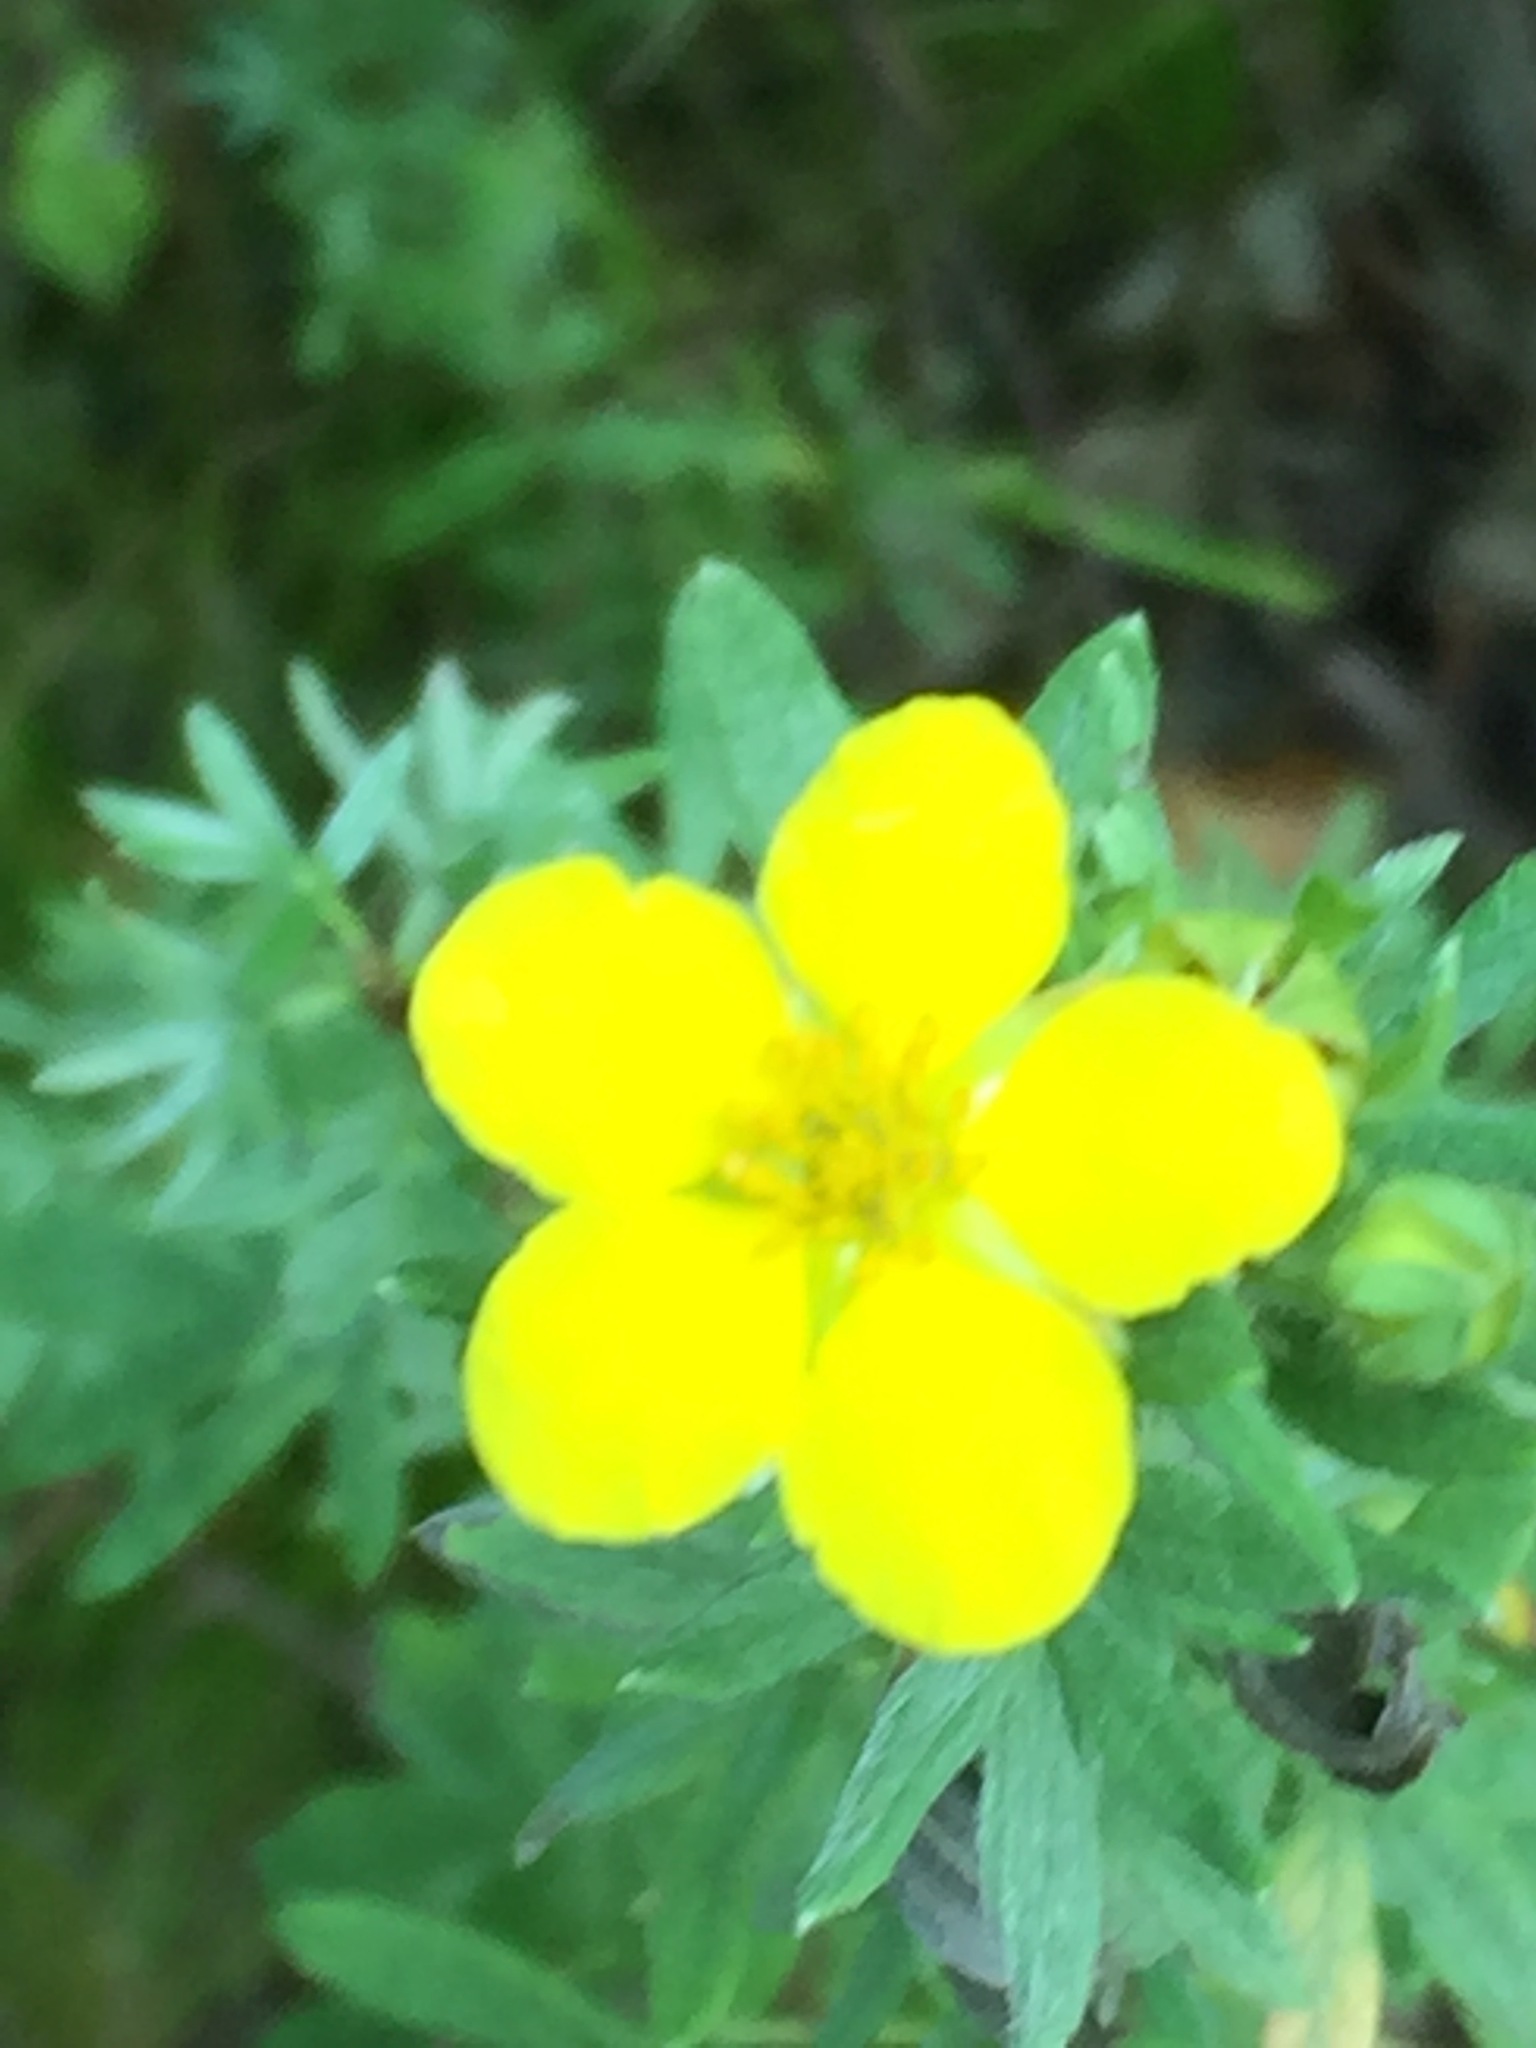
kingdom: Plantae
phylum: Tracheophyta
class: Magnoliopsida
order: Rosales
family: Rosaceae
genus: Dasiphora
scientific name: Dasiphora fruticosa
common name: Shrubby cinquefoil
